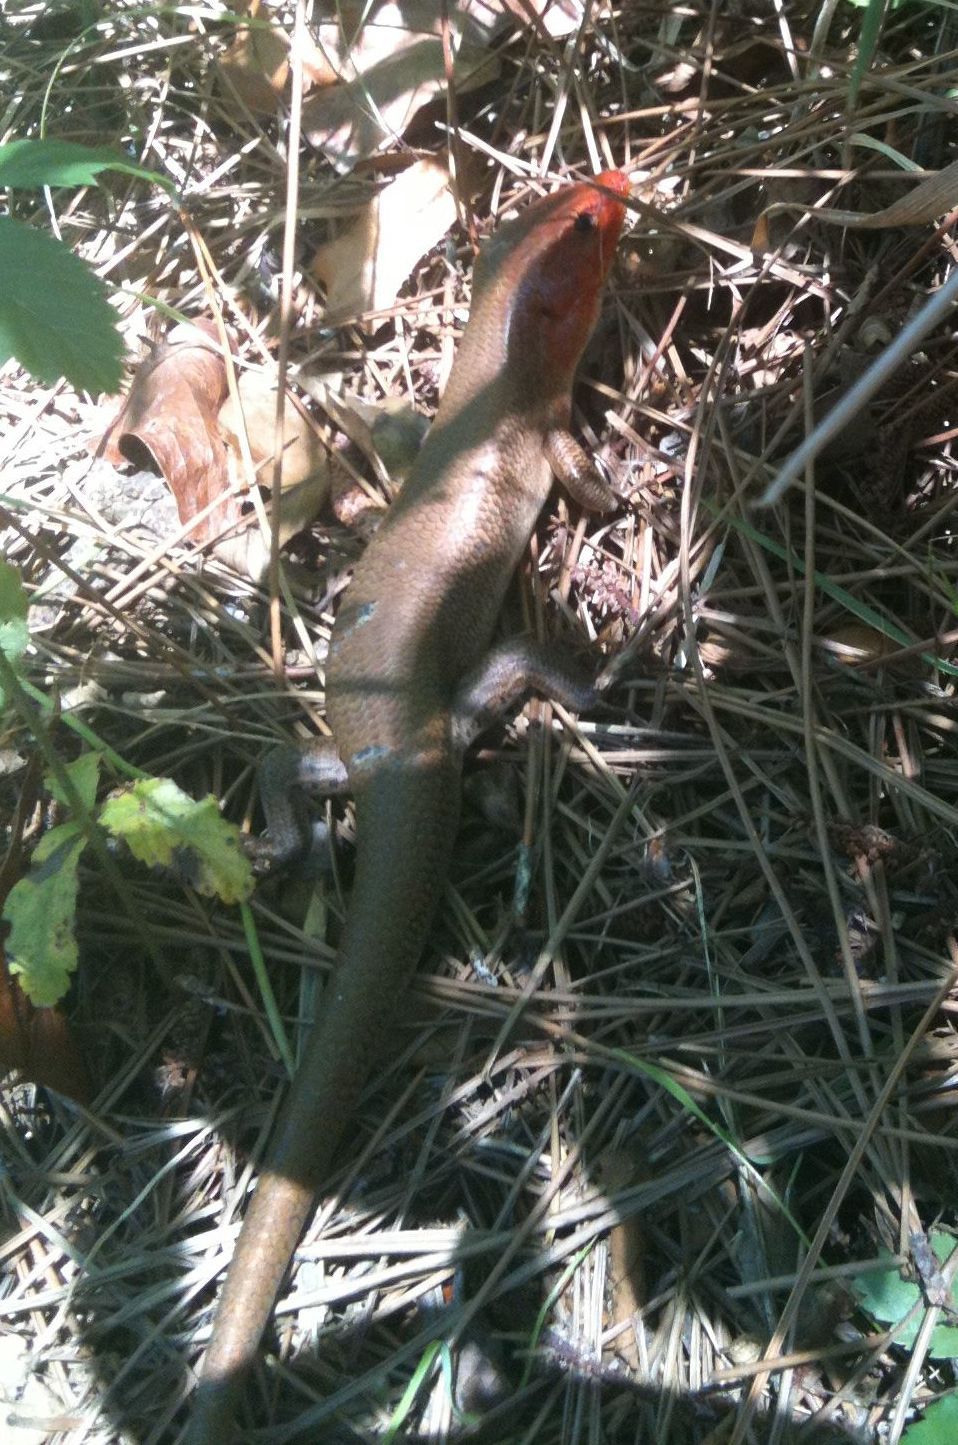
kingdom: Animalia
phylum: Chordata
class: Squamata
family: Scincidae
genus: Plestiodon
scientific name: Plestiodon laticeps
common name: Broadhead skink
